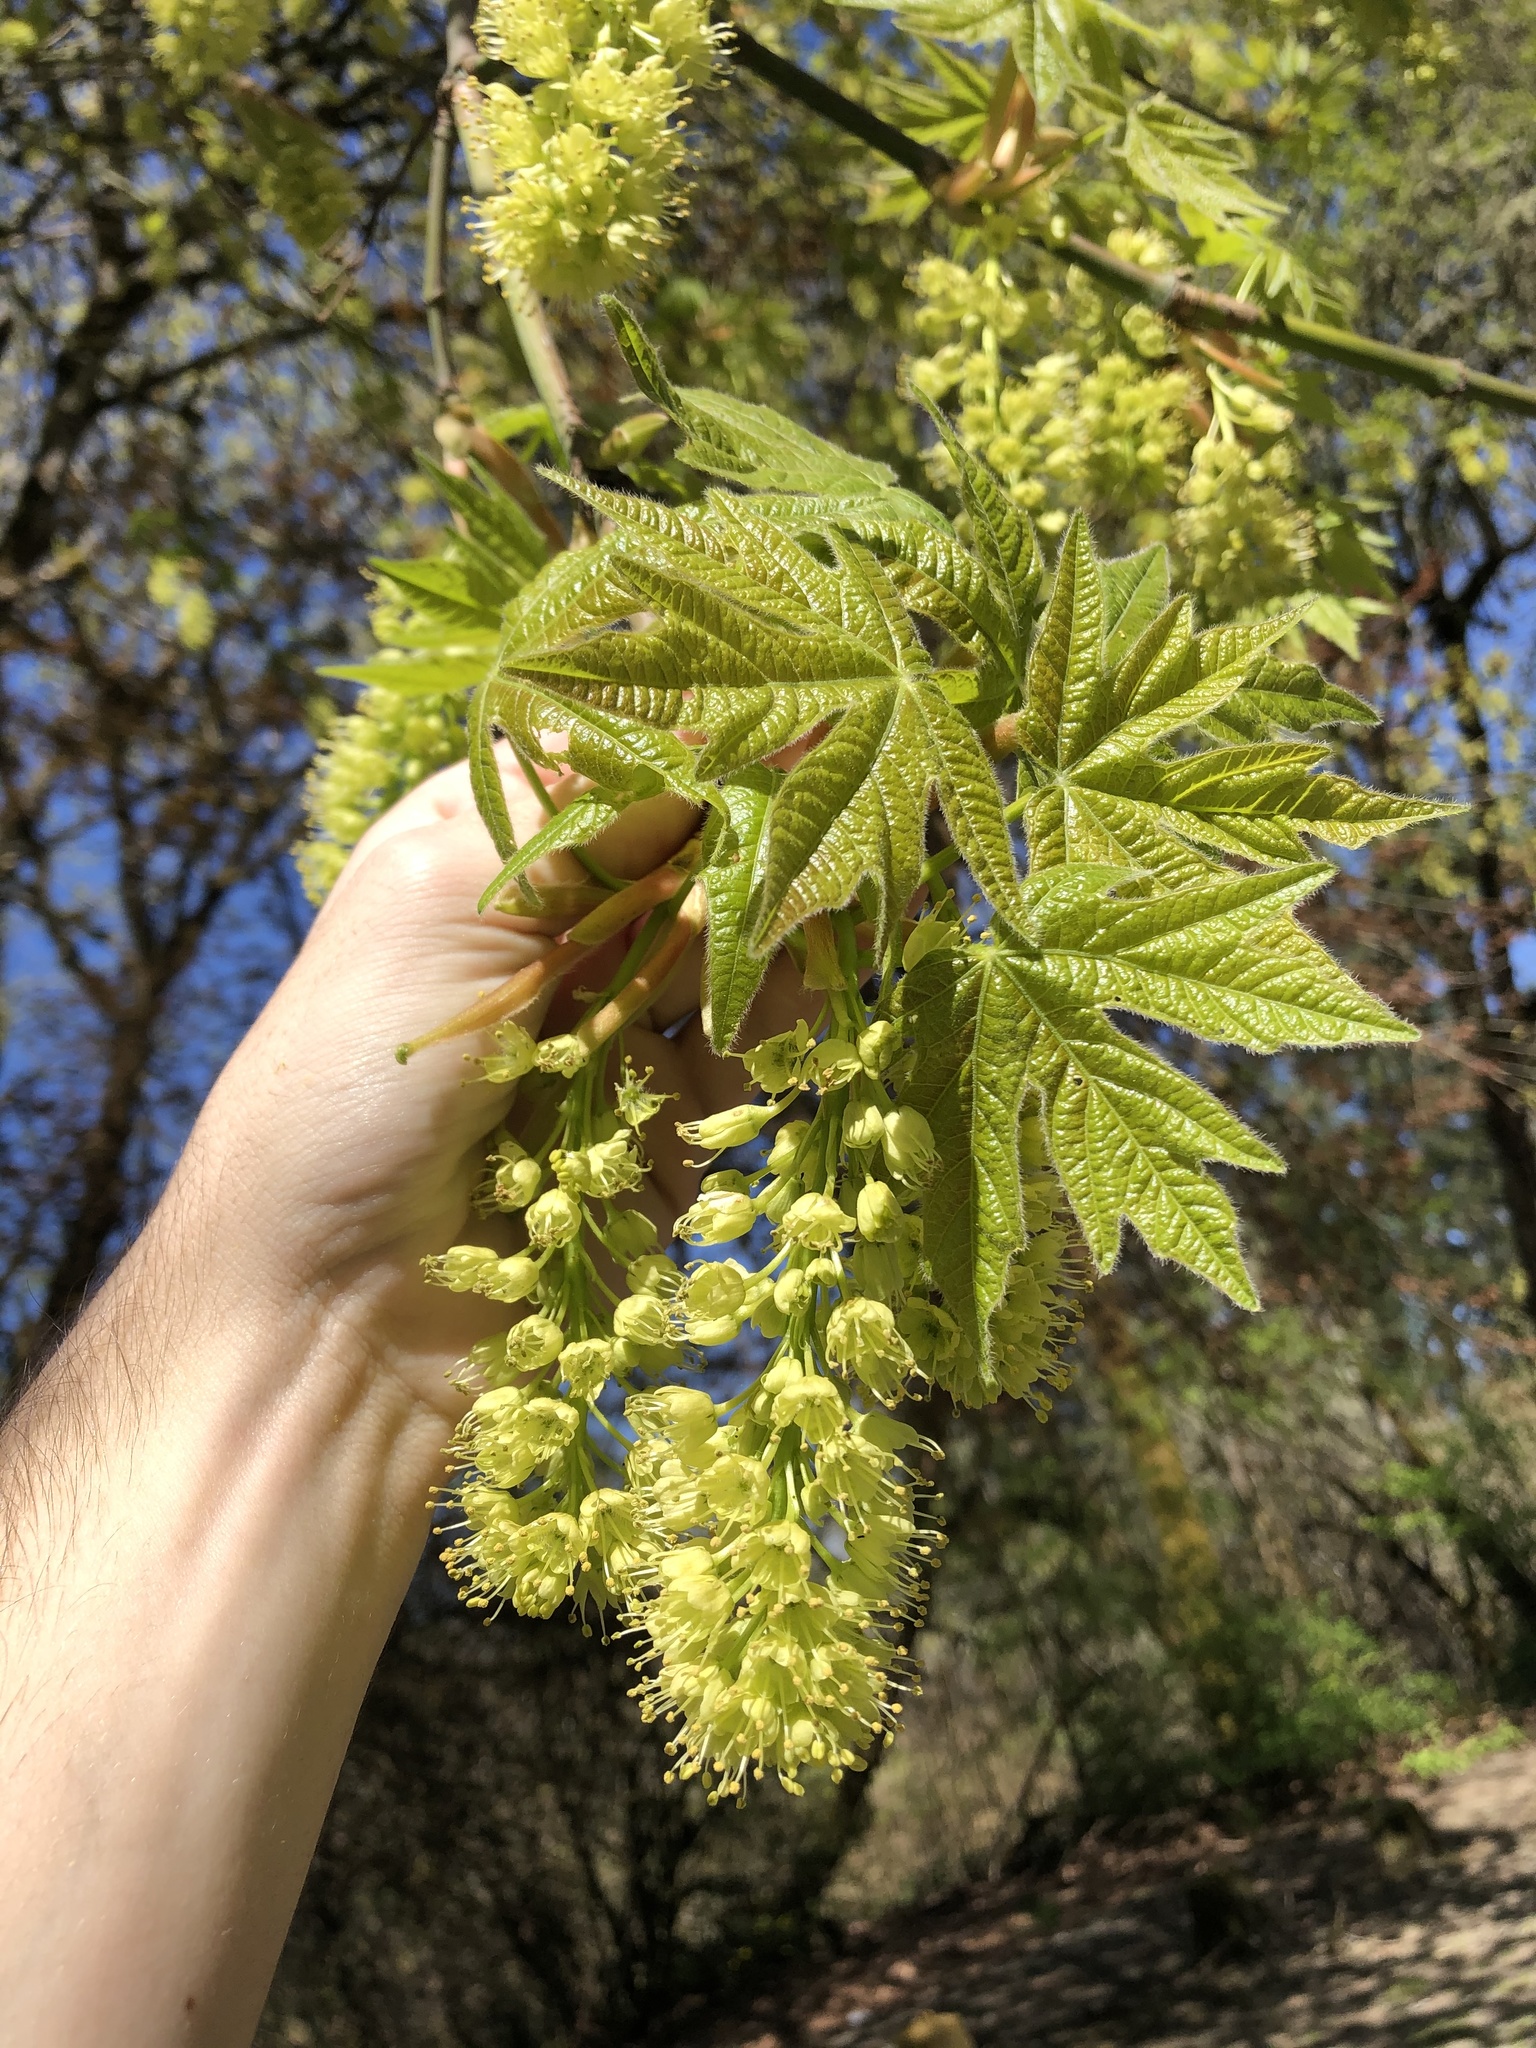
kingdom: Plantae
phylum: Tracheophyta
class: Magnoliopsida
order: Sapindales
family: Sapindaceae
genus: Acer
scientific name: Acer macrophyllum
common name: Oregon maple
